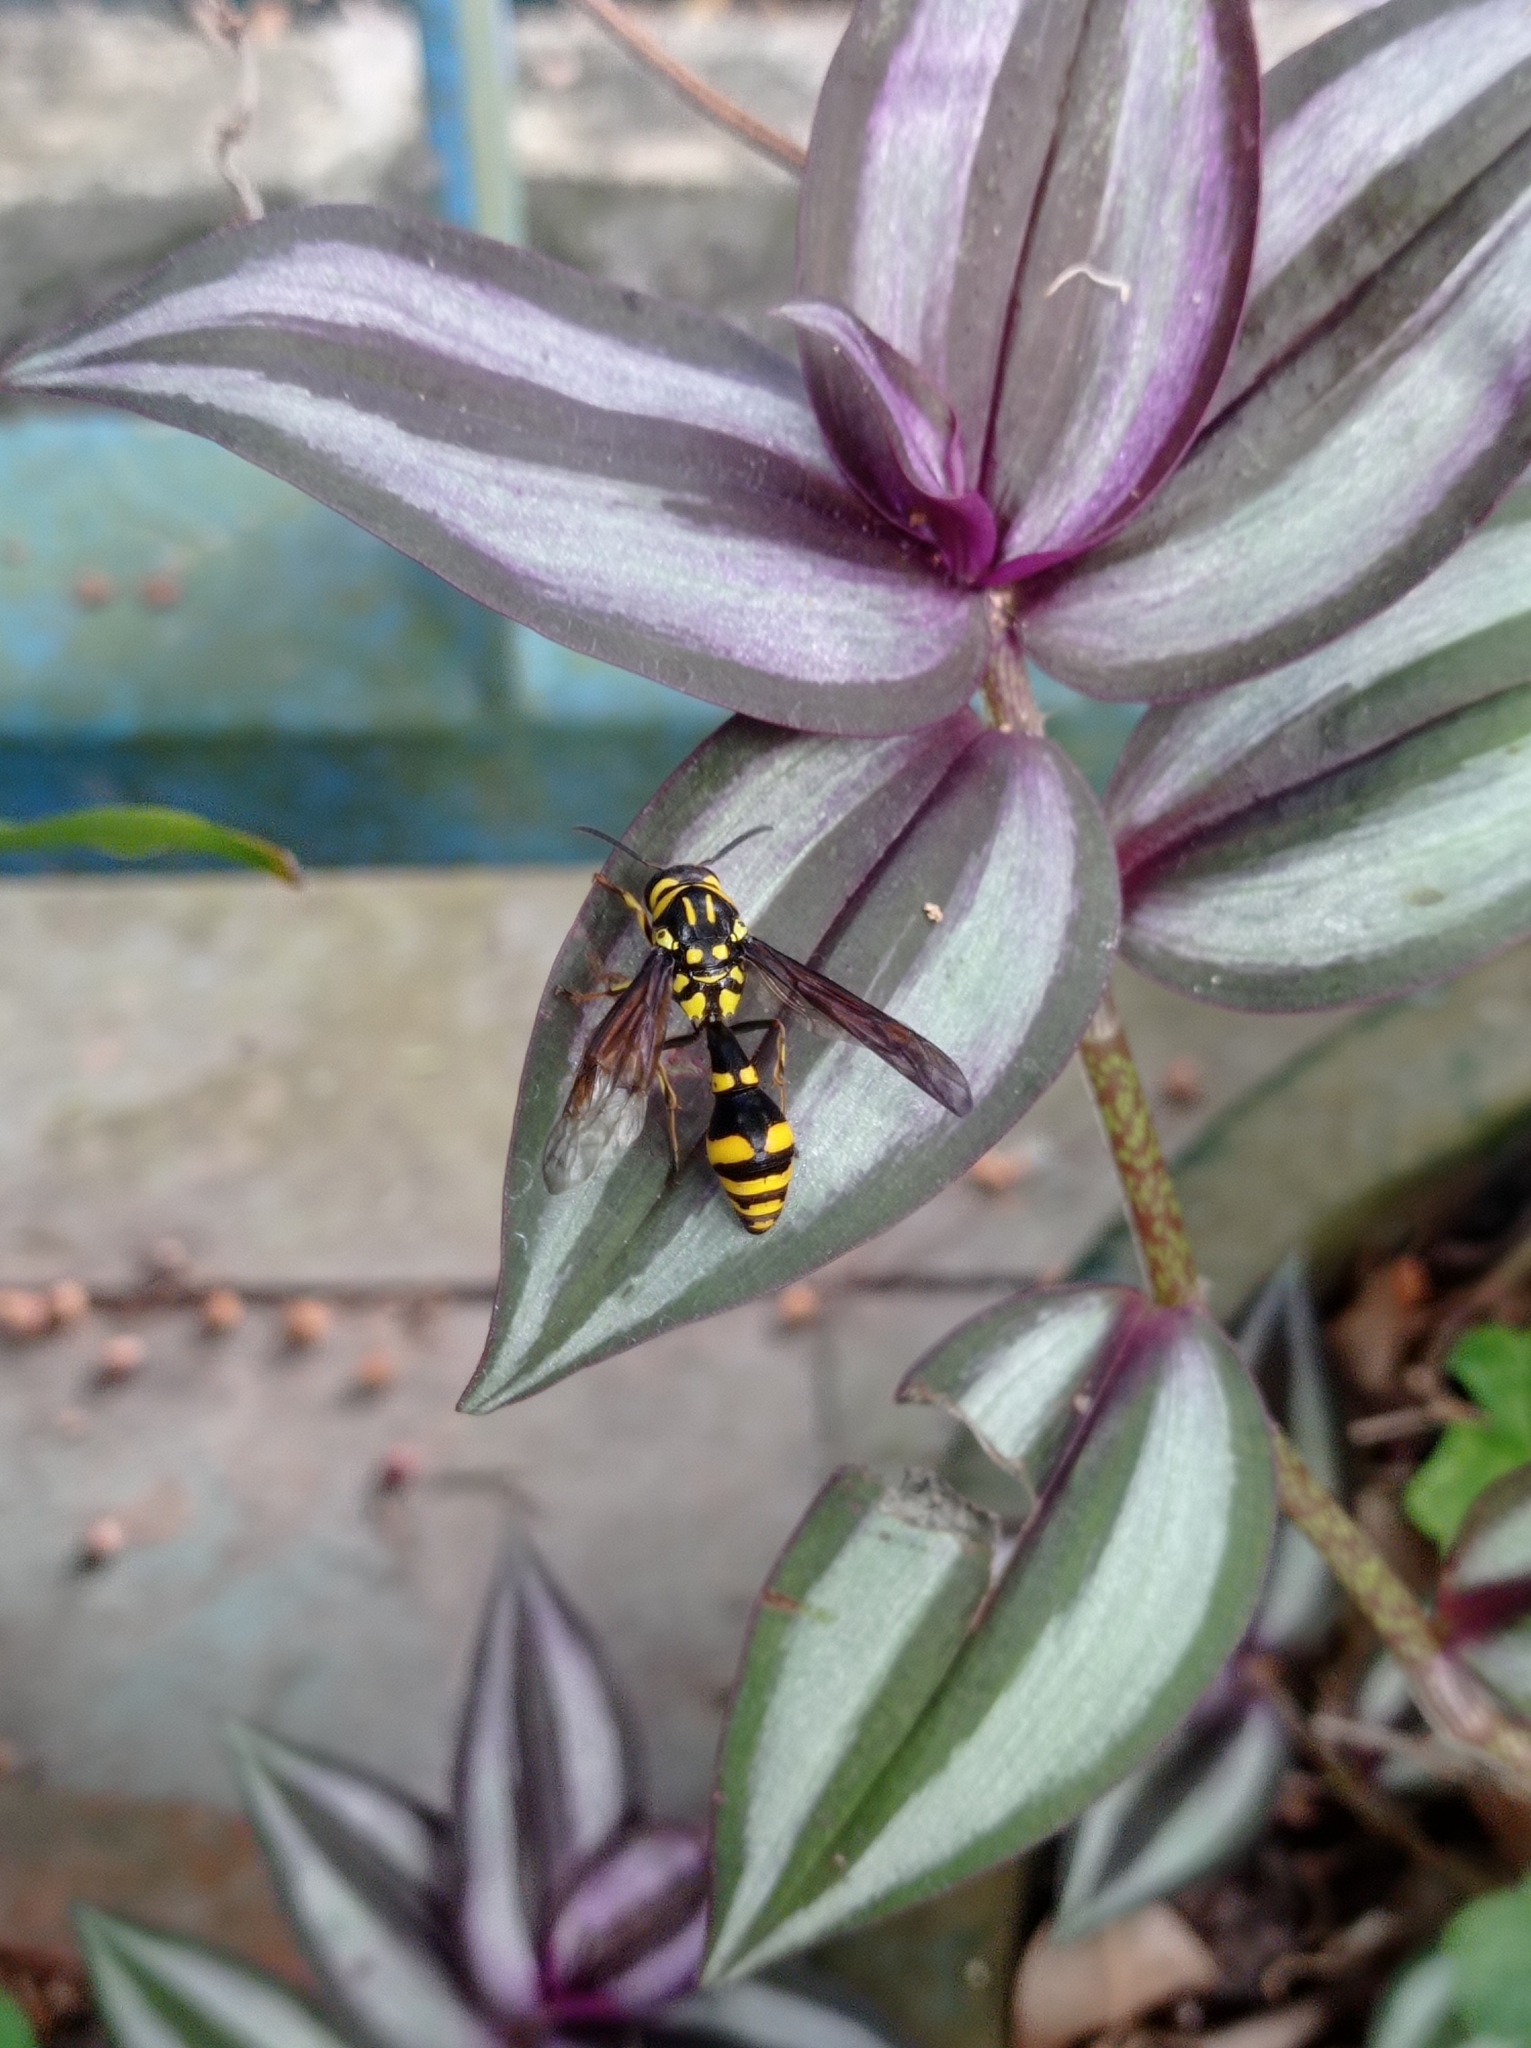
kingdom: Animalia
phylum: Arthropoda
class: Insecta
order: Hymenoptera
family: Eumenidae
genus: Pareumenes
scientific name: Pareumenes quadrispinosus
